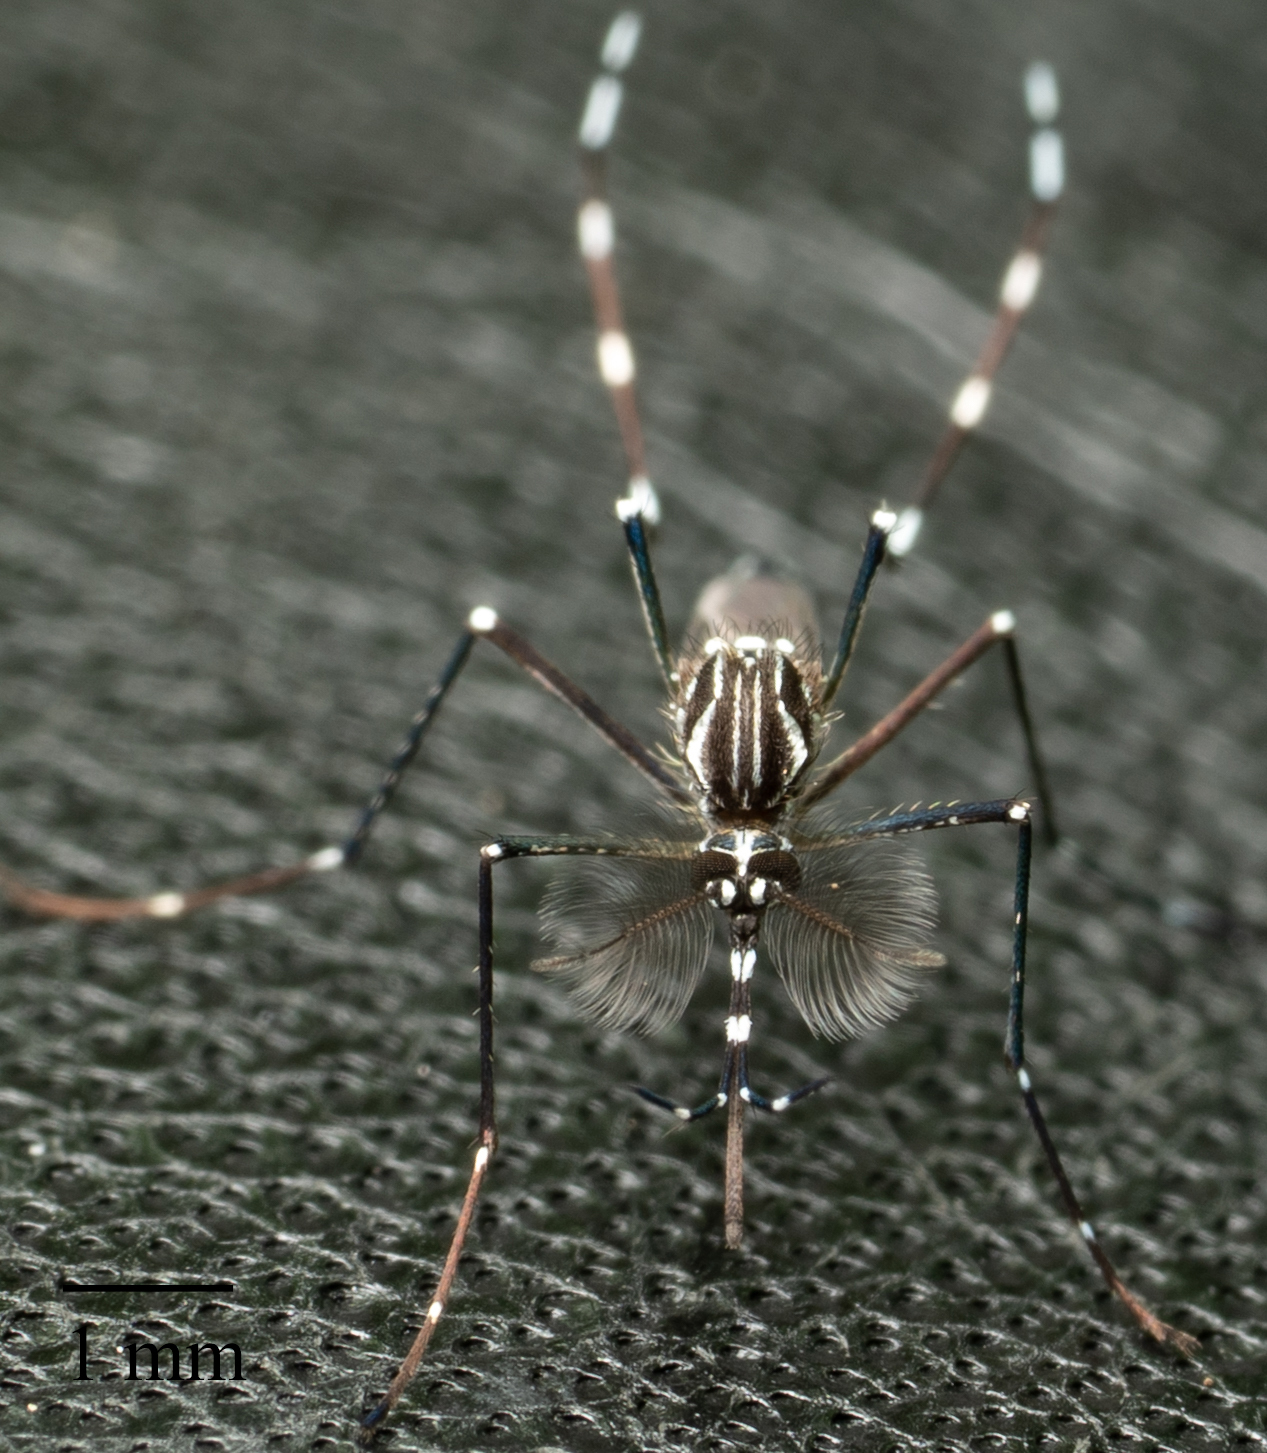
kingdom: Animalia
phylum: Arthropoda
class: Insecta
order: Diptera
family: Culicidae
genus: Aedes
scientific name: Aedes aegypti
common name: Yellow fever mosquito
